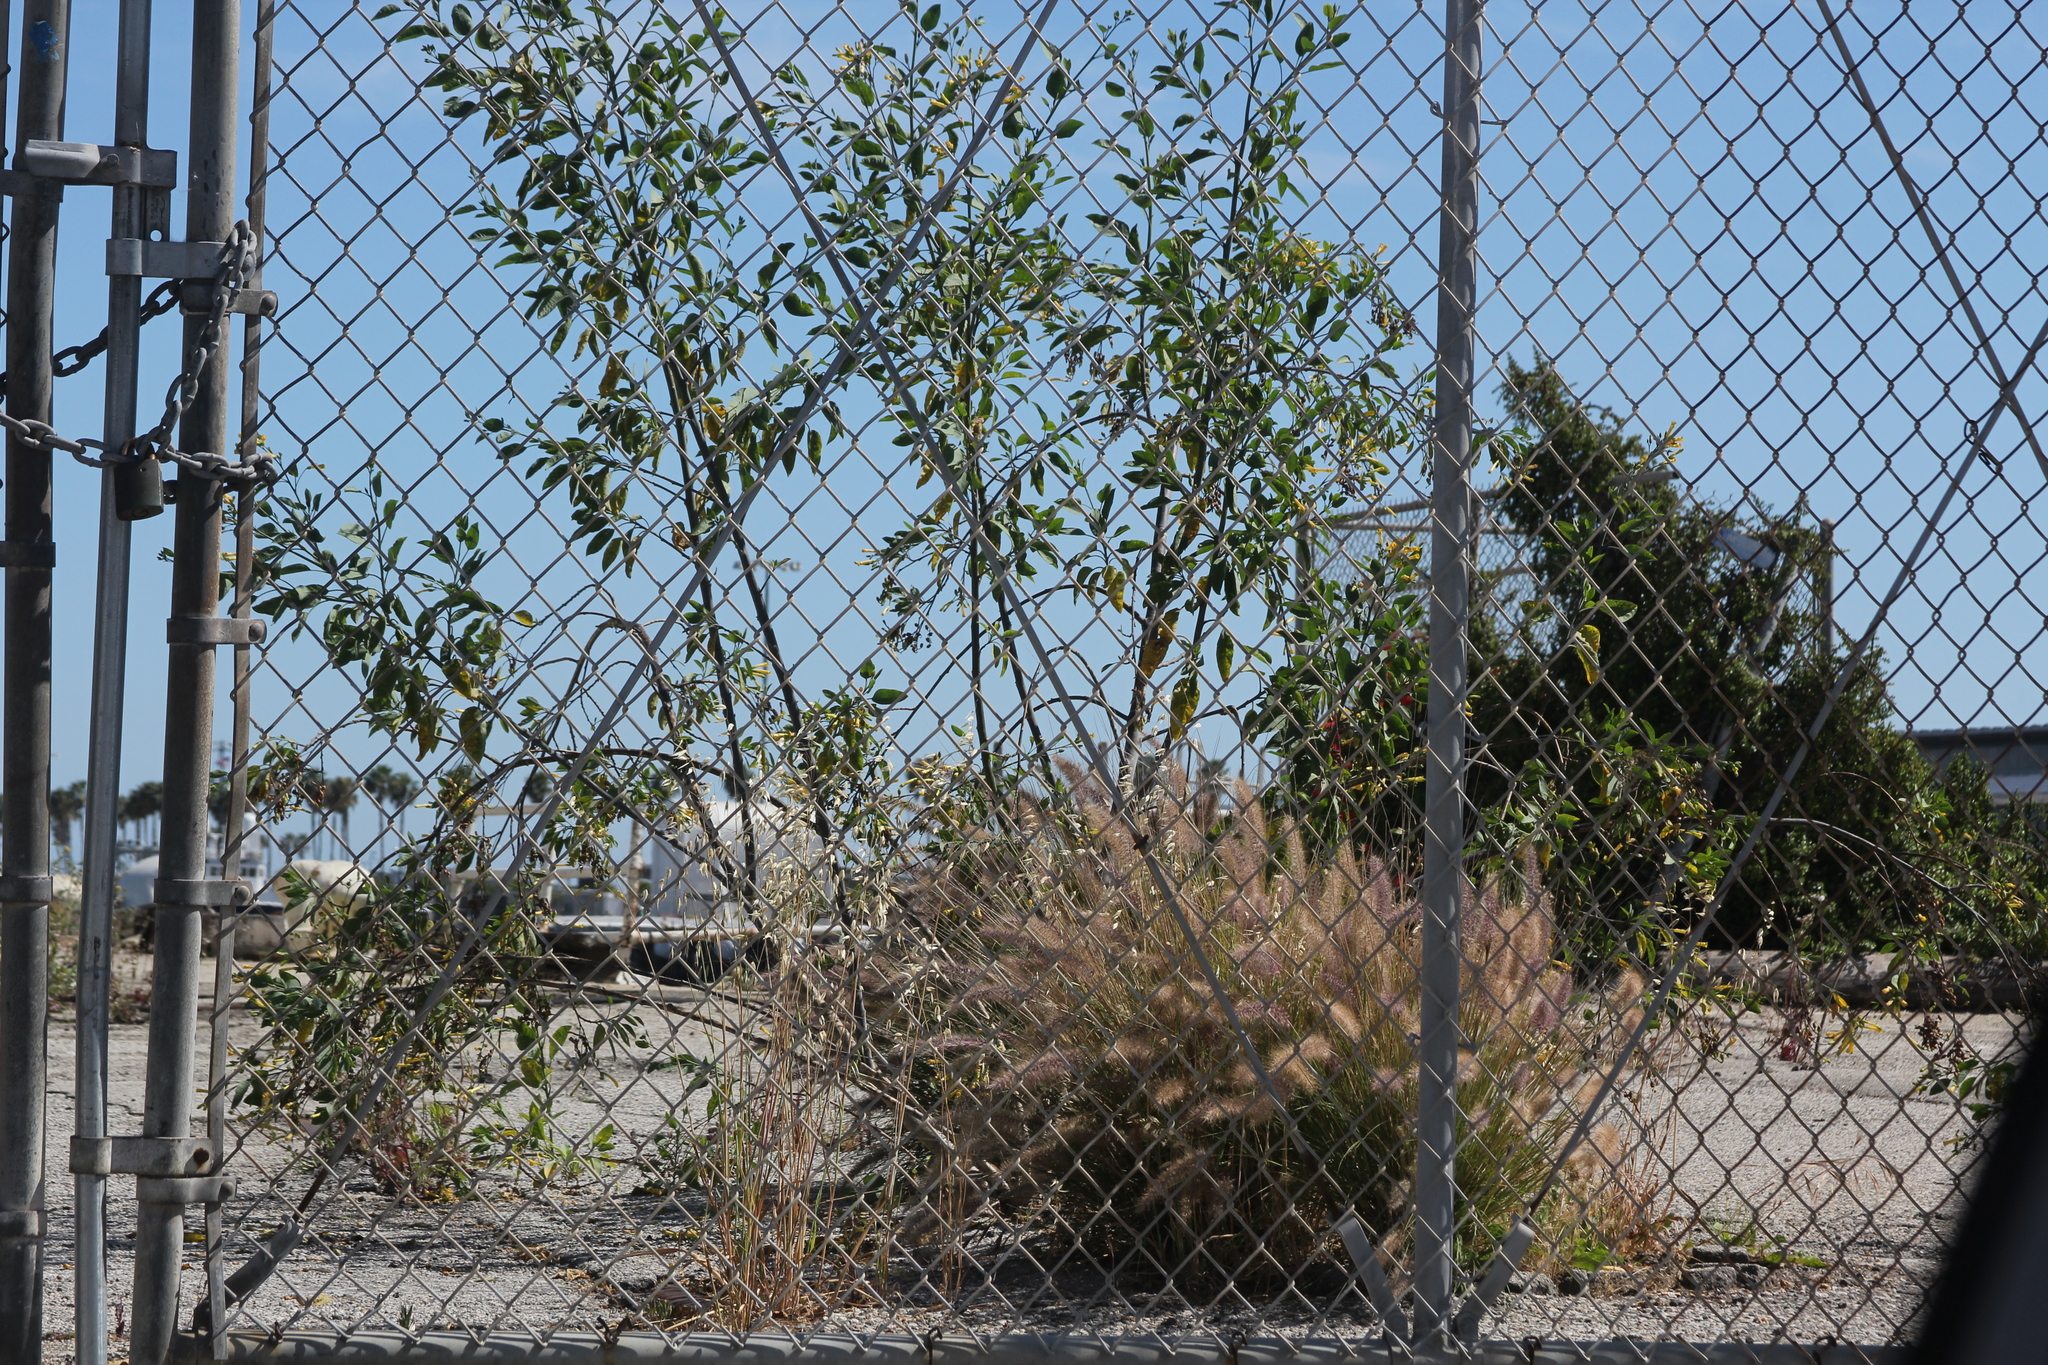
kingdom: Plantae
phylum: Tracheophyta
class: Magnoliopsida
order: Solanales
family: Solanaceae
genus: Nicotiana
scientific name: Nicotiana glauca
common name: Tree tobacco
